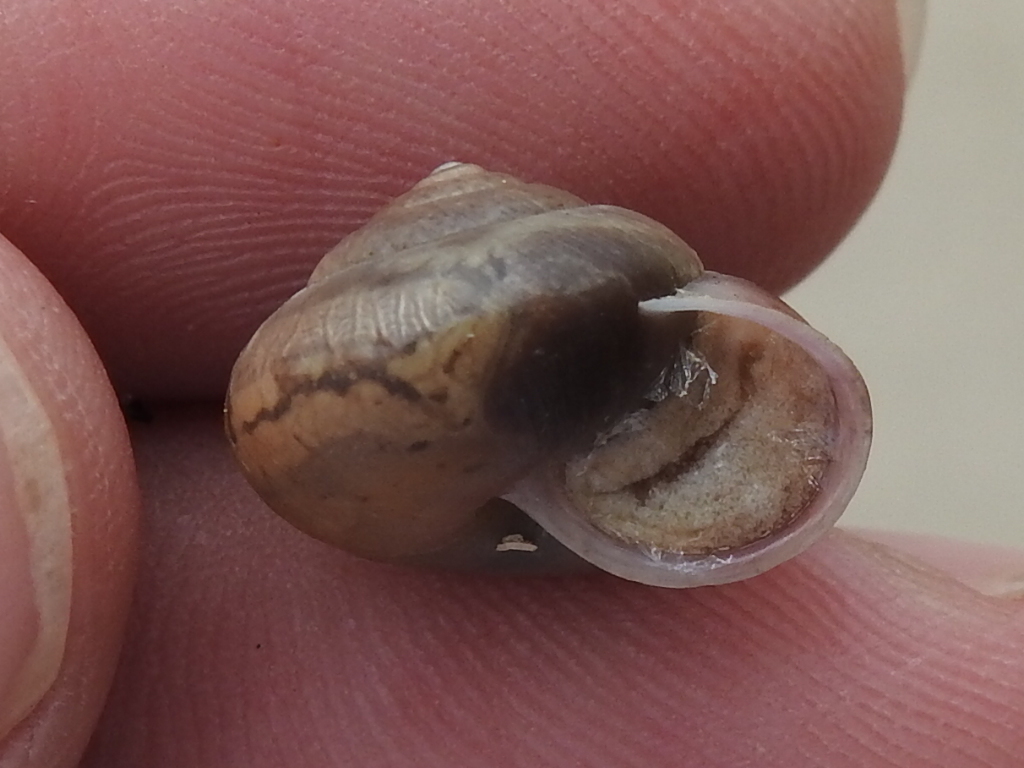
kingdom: Animalia
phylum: Mollusca
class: Gastropoda
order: Stylommatophora
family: Camaenidae
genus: Bradybaena
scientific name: Bradybaena similaris
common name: Asian trampsnail
